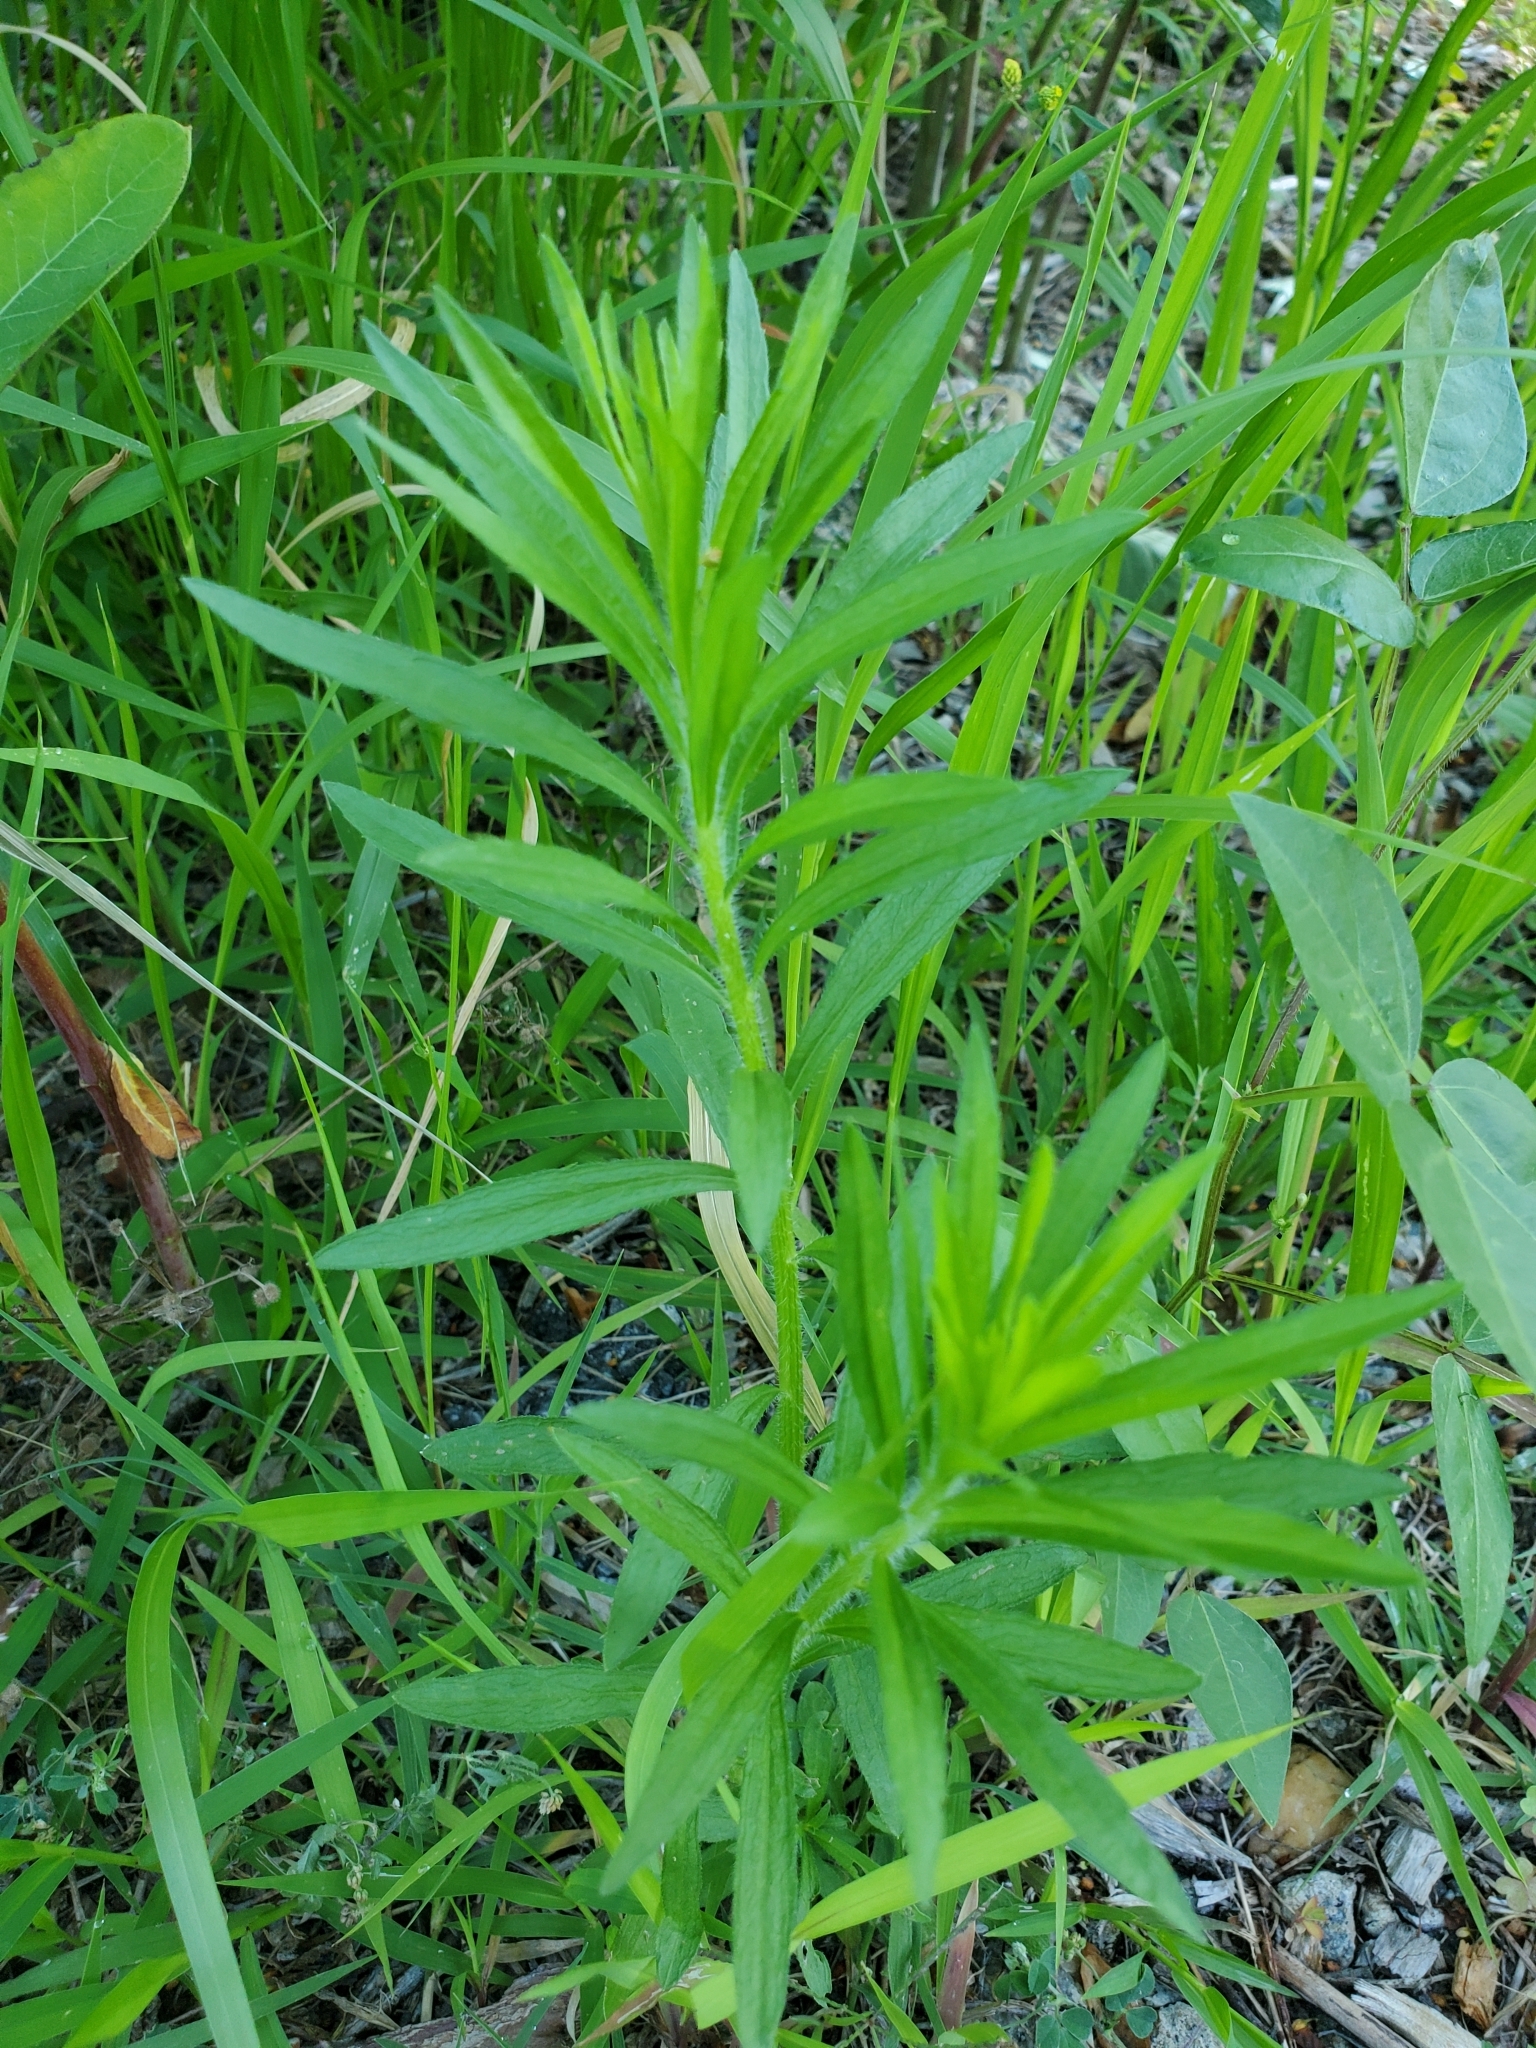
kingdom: Plantae
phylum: Tracheophyta
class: Magnoliopsida
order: Asterales
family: Asteraceae
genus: Erigeron
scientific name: Erigeron canadensis
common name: Canadian fleabane
